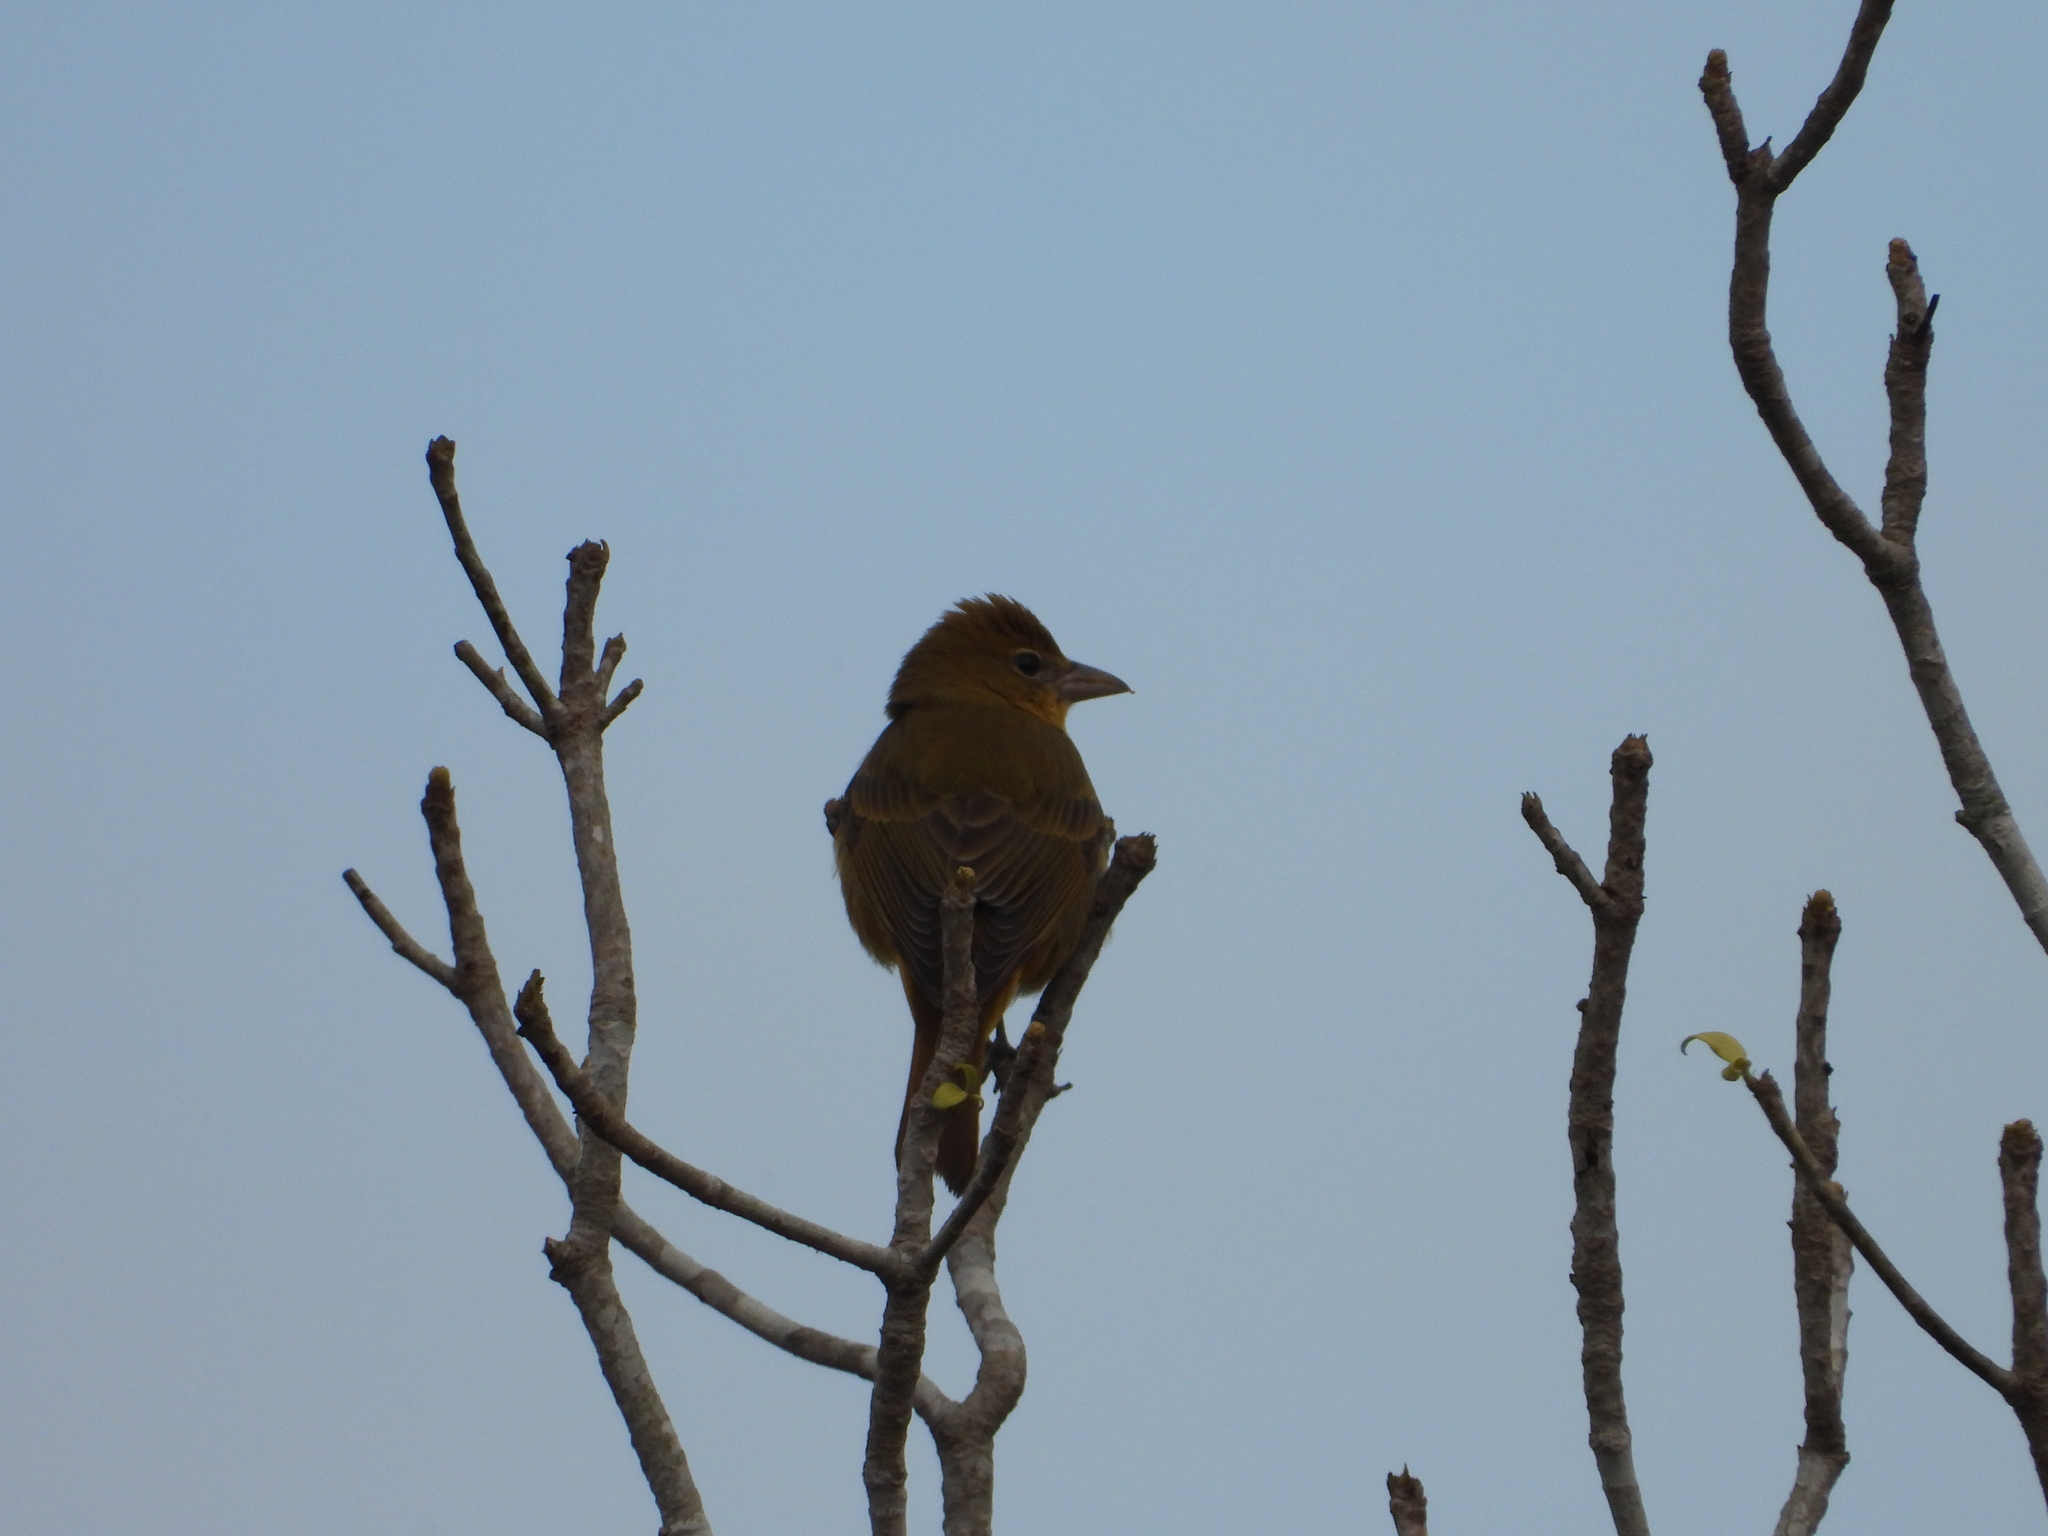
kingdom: Animalia
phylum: Chordata
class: Aves
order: Passeriformes
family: Cardinalidae
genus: Piranga
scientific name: Piranga rubra
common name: Summer tanager
